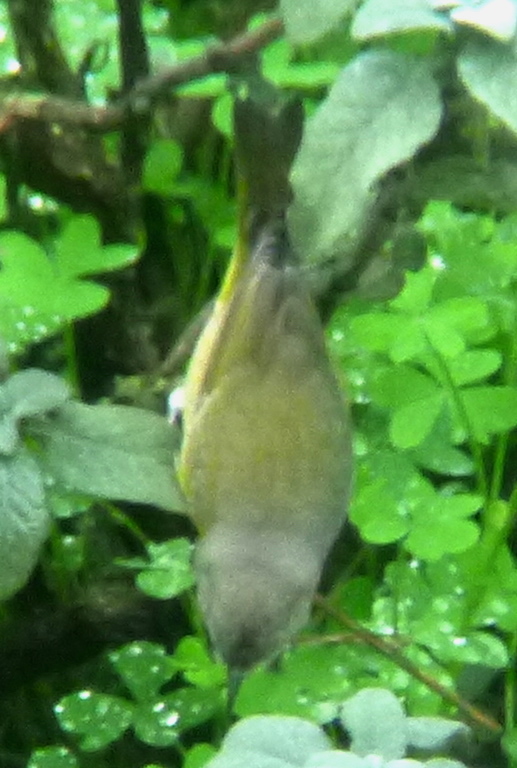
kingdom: Animalia
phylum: Chordata
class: Aves
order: Passeriformes
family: Parulidae
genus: Leiothlypis
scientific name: Leiothlypis ruficapilla
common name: Nashville warbler
